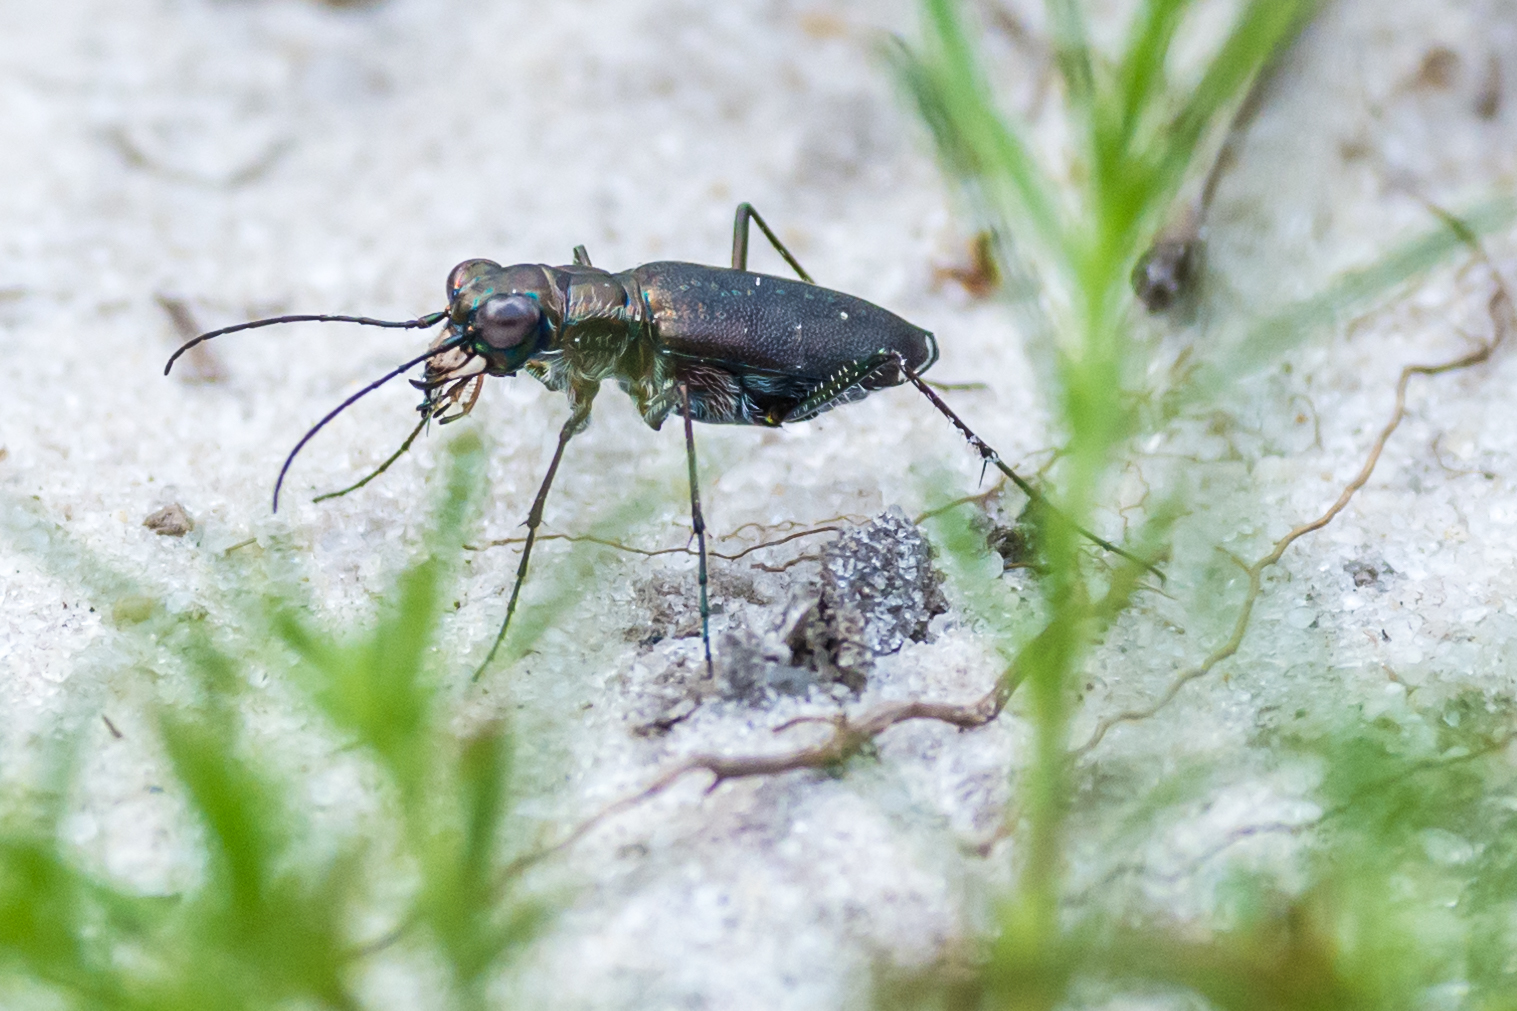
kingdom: Animalia
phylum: Arthropoda
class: Insecta
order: Coleoptera
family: Carabidae
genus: Cicindela
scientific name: Cicindela punctulata
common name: Punctured tiger beetle
